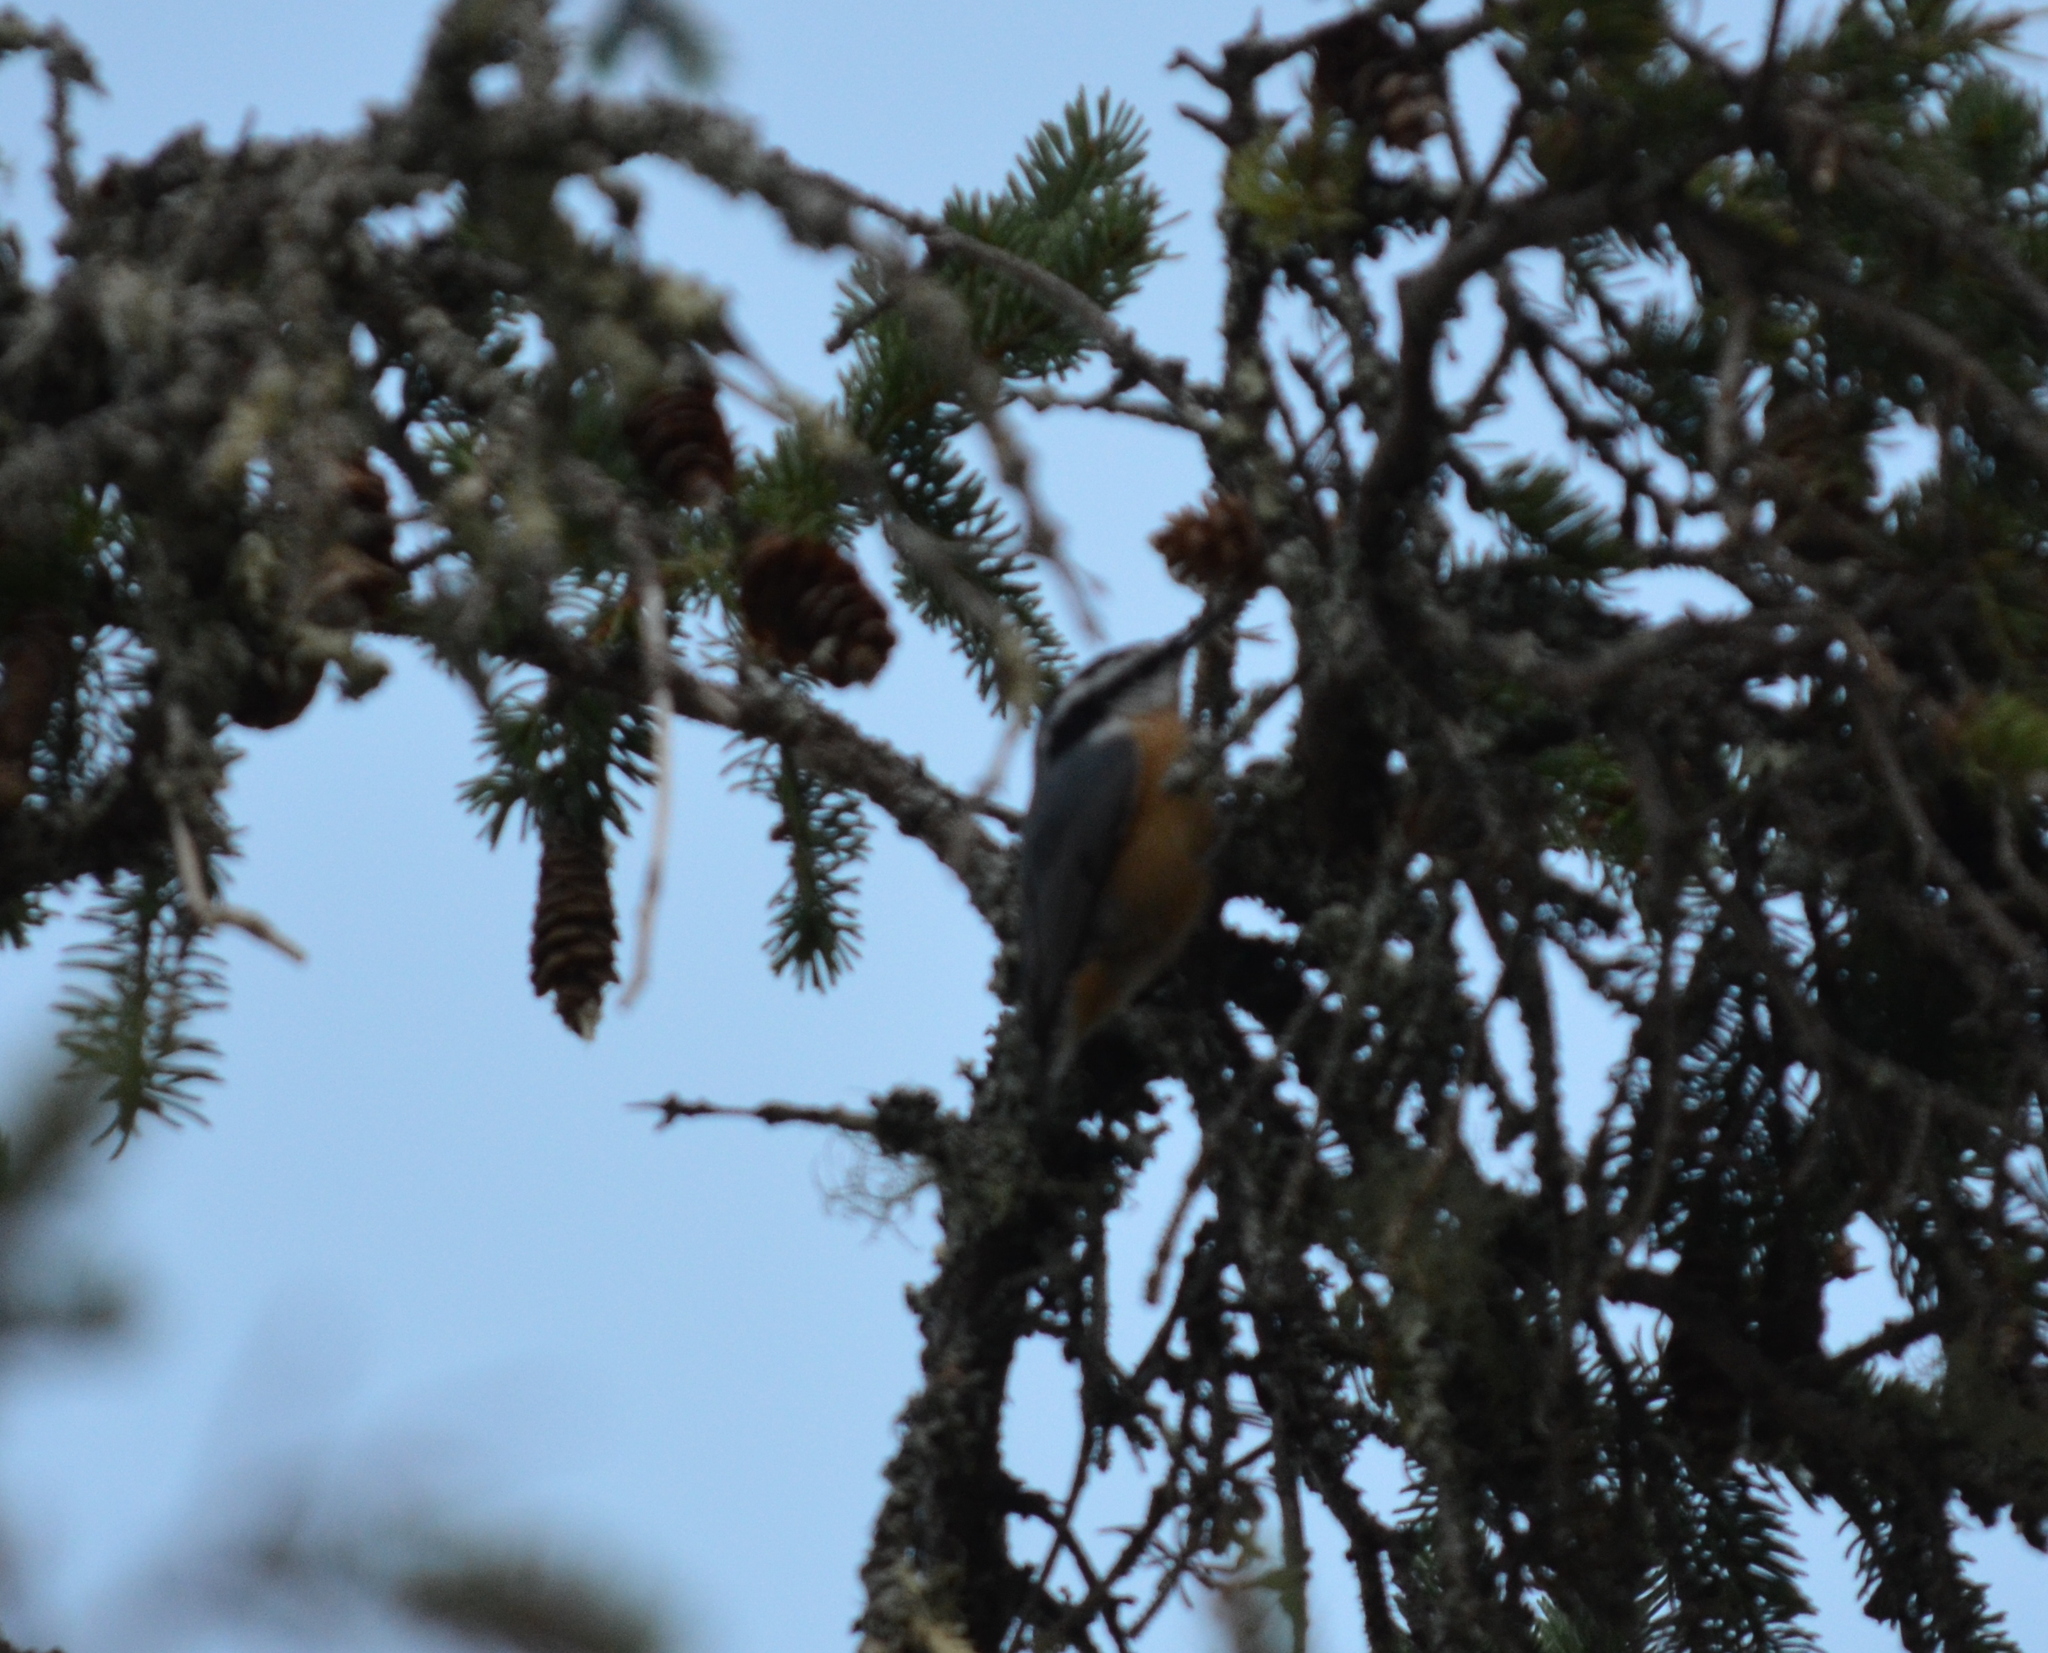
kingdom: Animalia
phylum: Chordata
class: Aves
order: Passeriformes
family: Sittidae
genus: Sitta
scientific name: Sitta canadensis
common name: Red-breasted nuthatch
